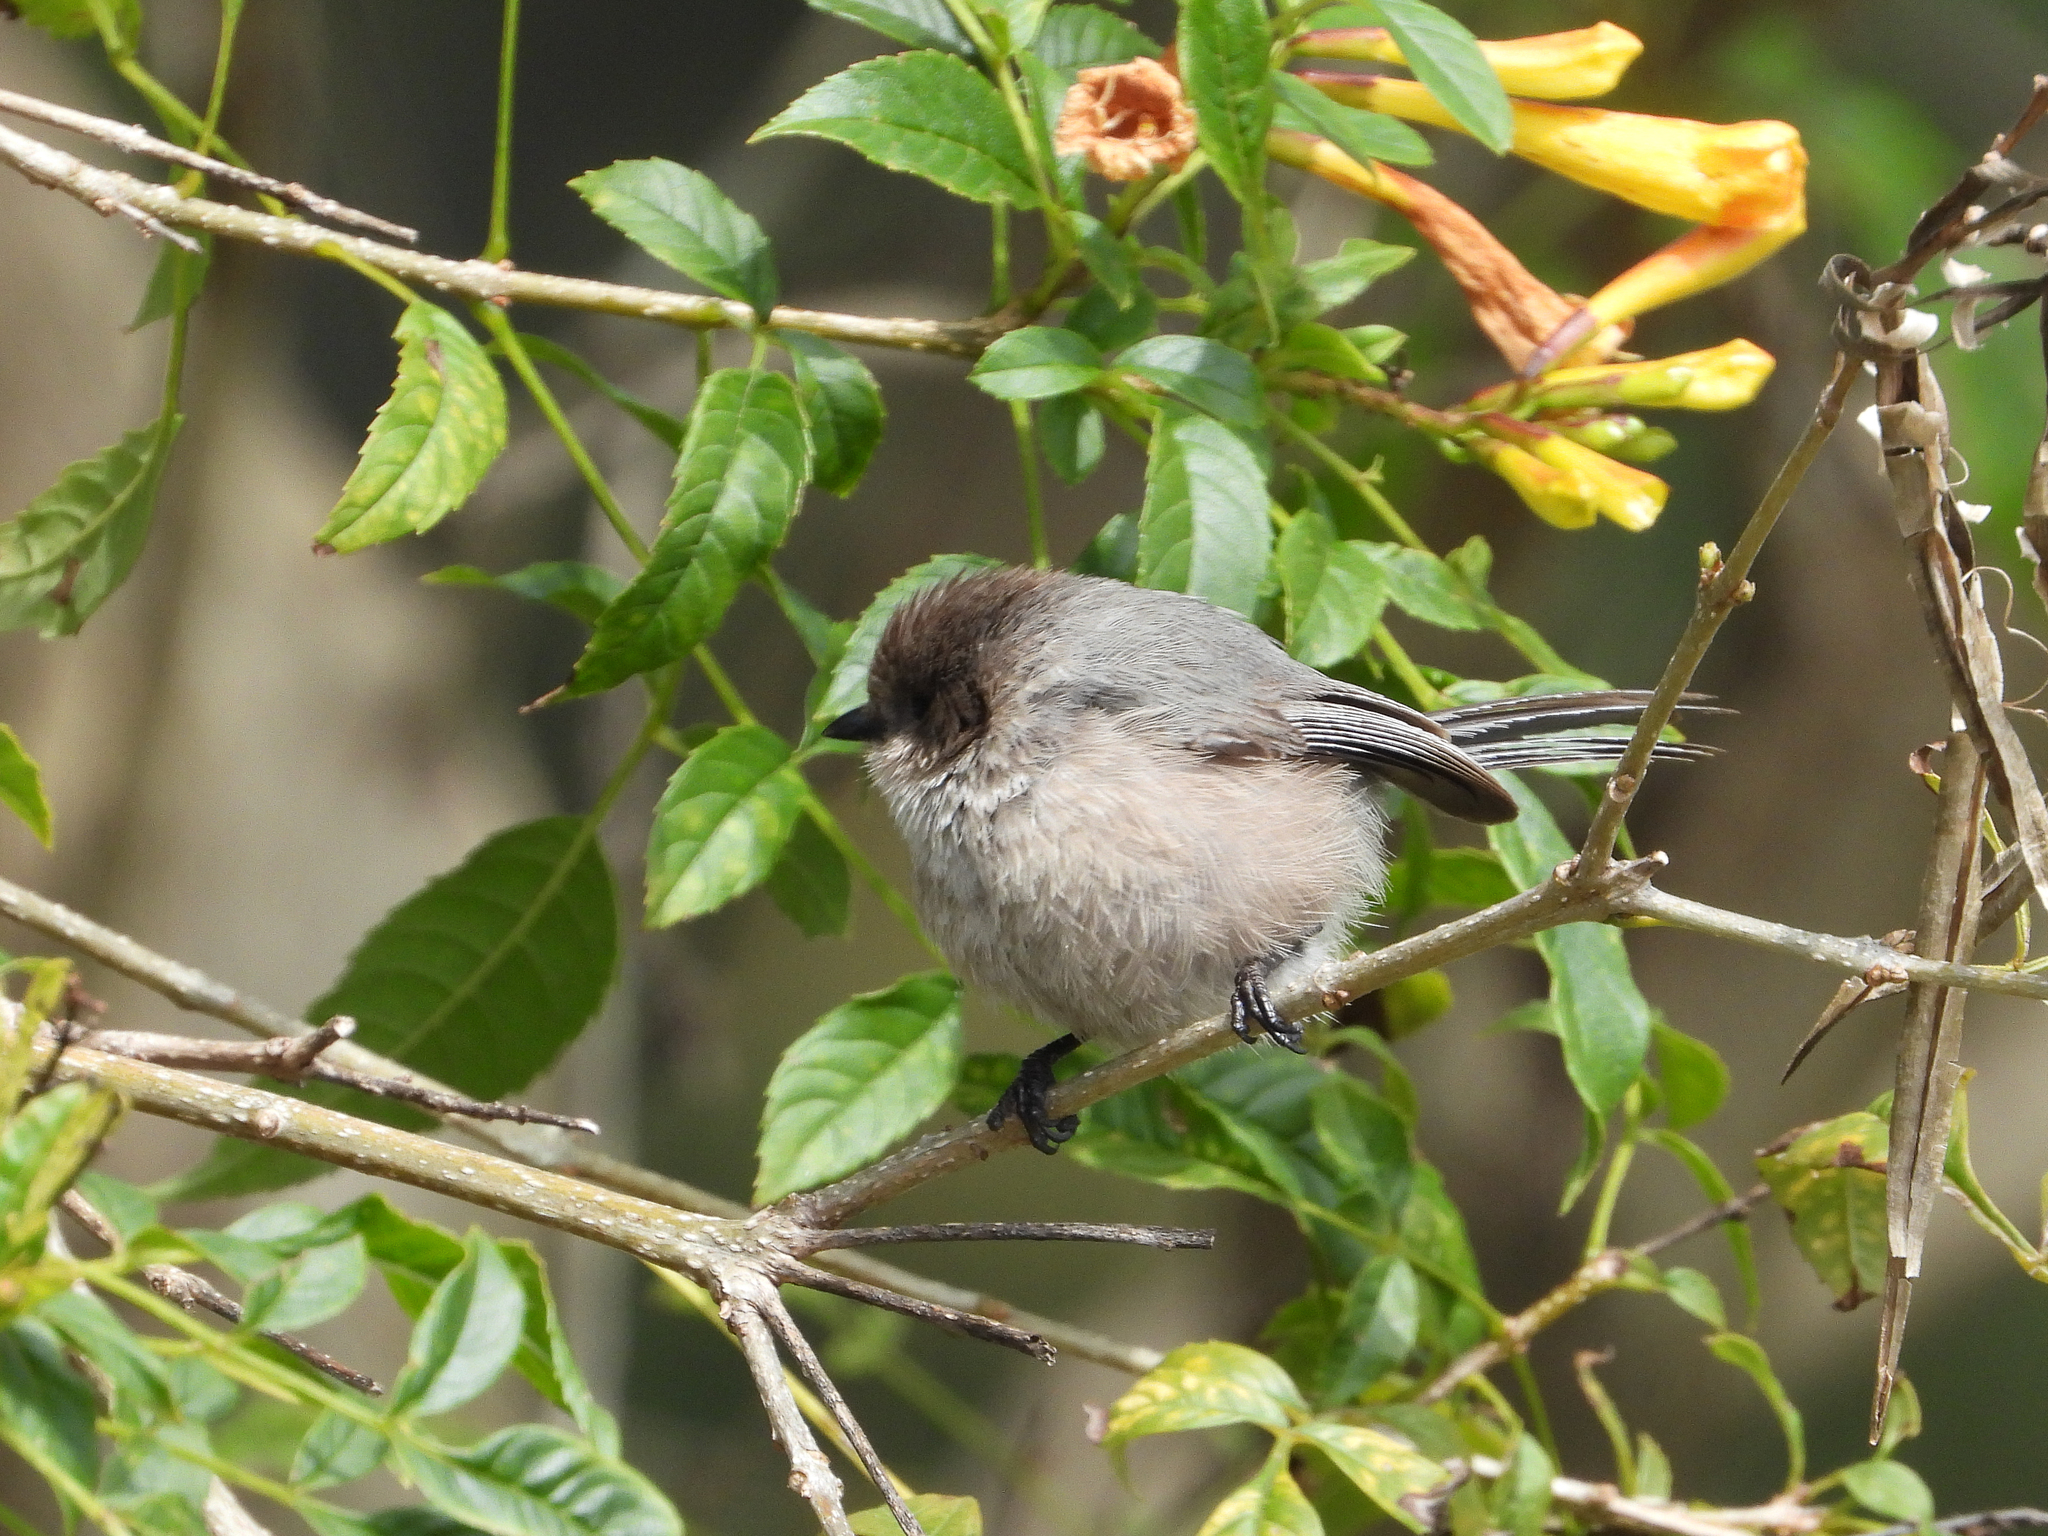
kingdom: Animalia
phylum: Chordata
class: Aves
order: Passeriformes
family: Aegithalidae
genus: Psaltriparus
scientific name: Psaltriparus minimus
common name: American bushtit
